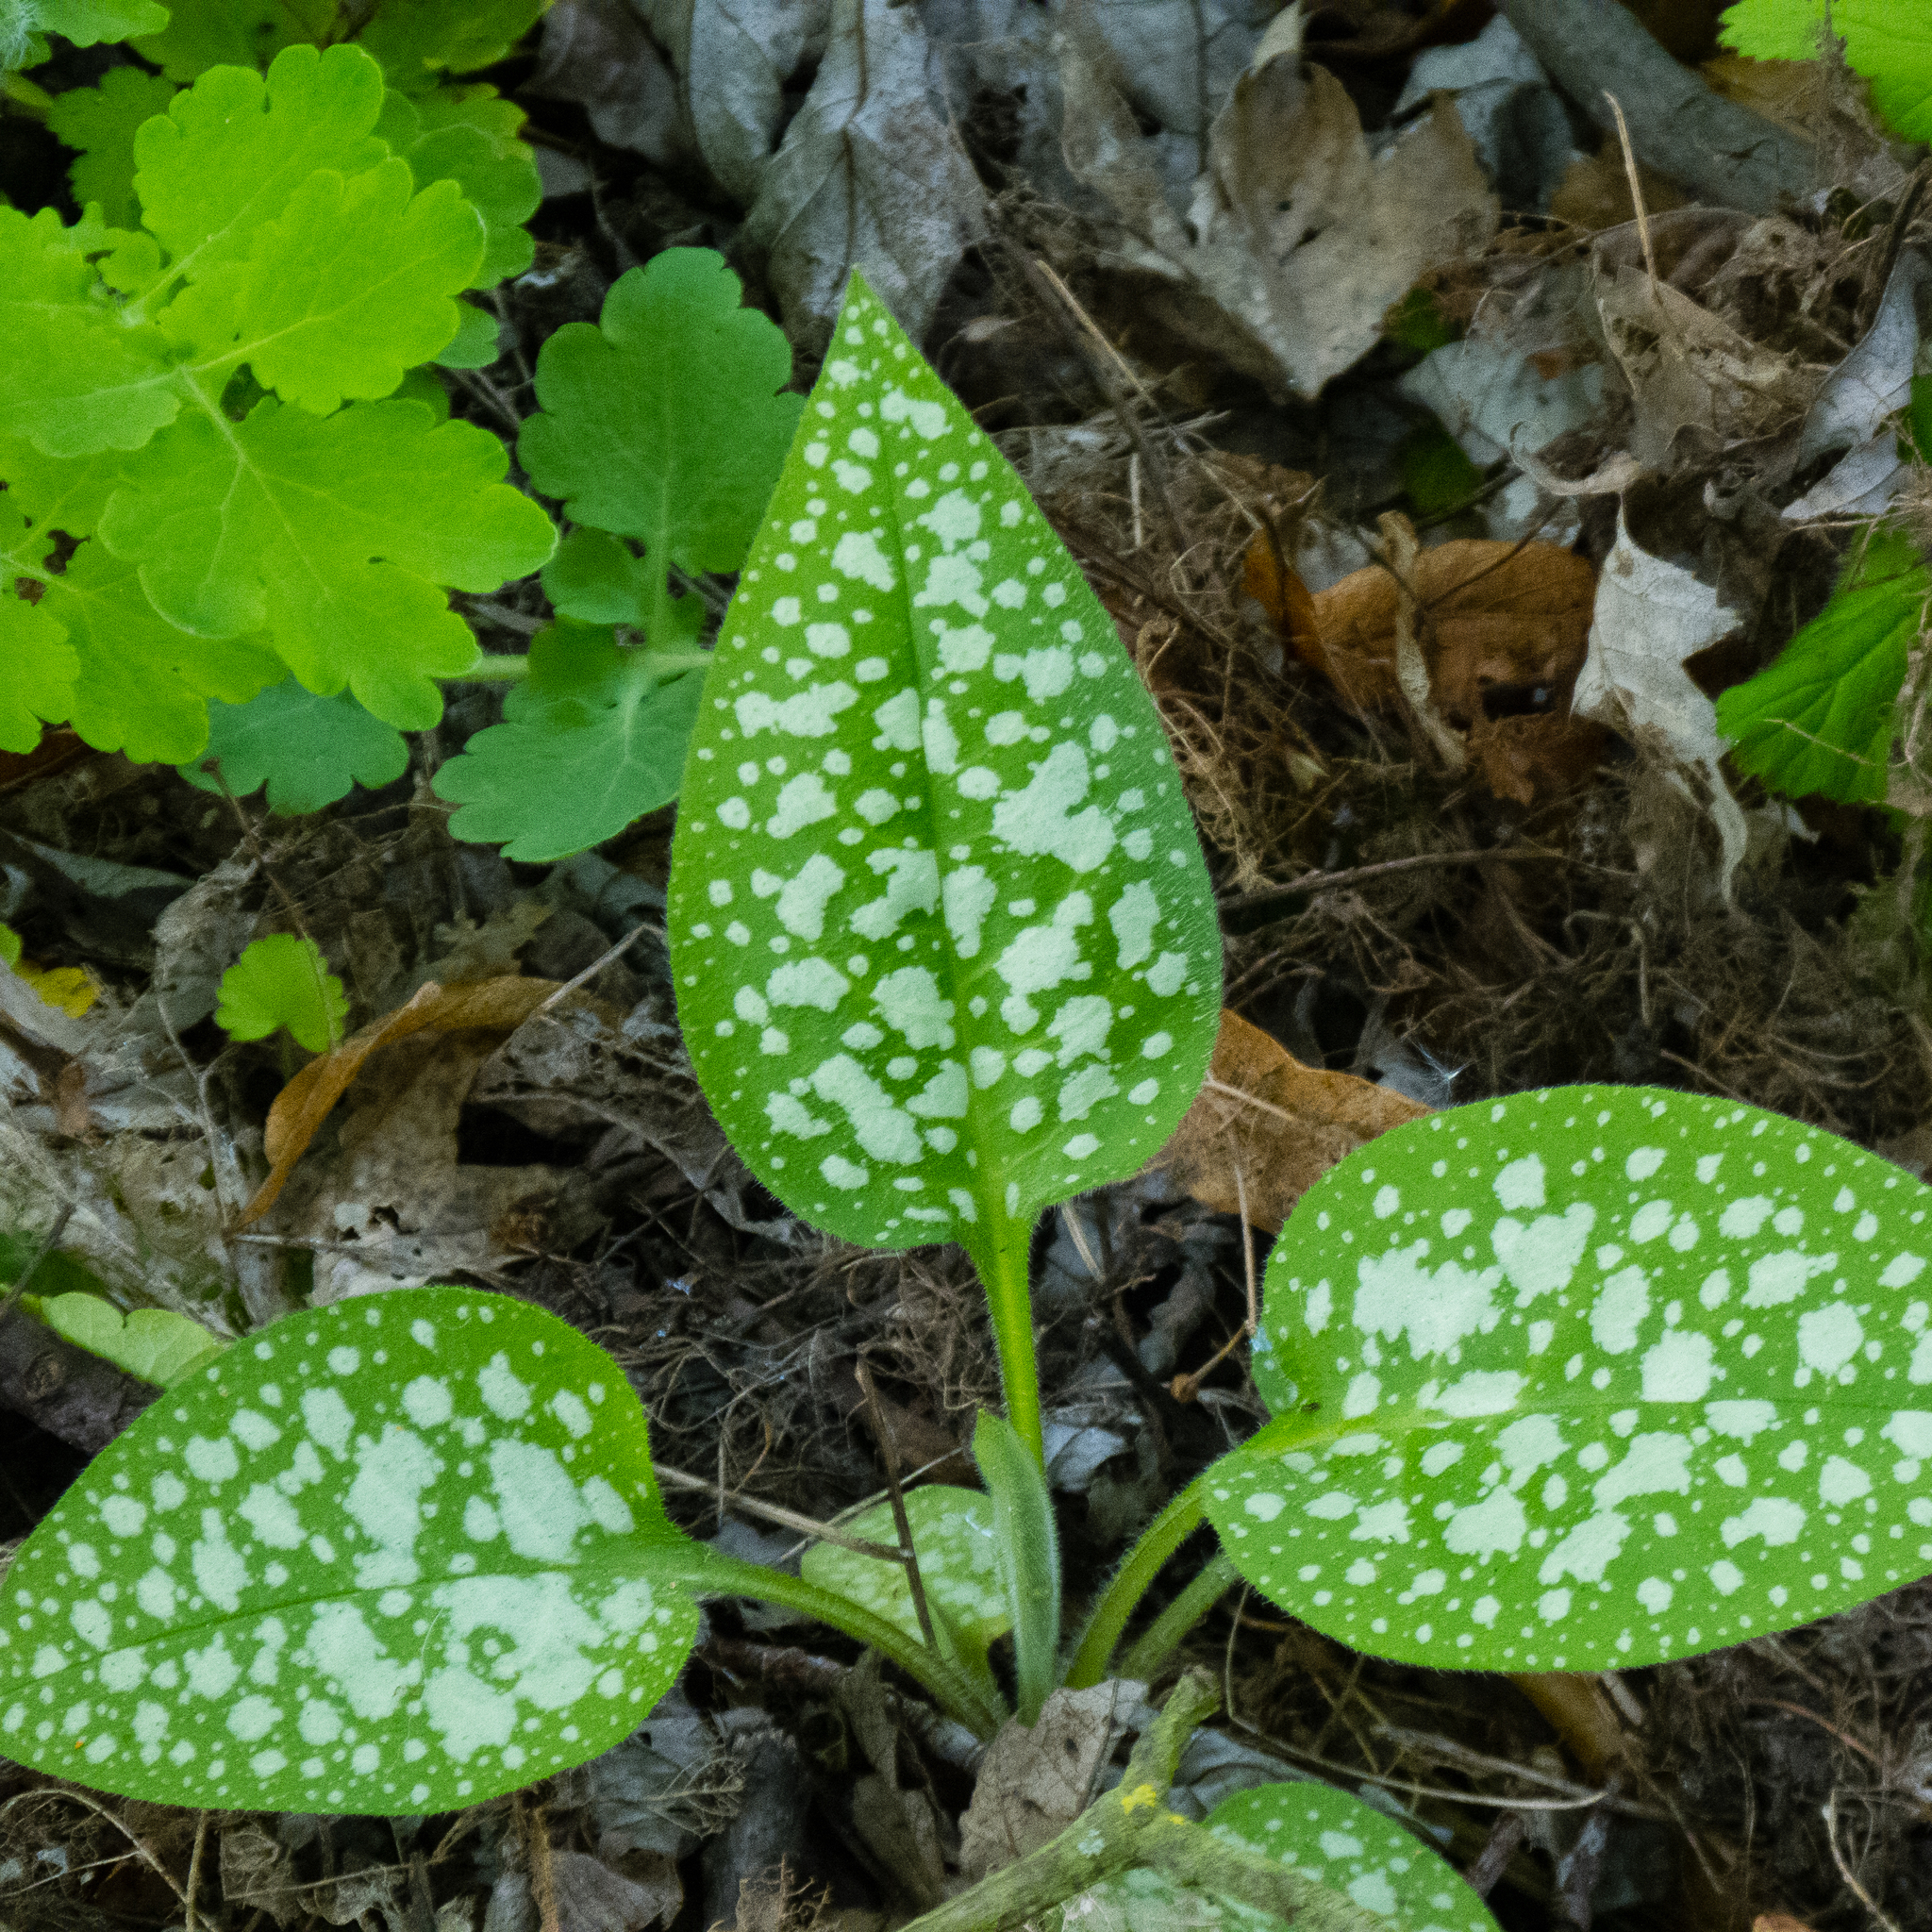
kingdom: Plantae
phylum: Tracheophyta
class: Magnoliopsida
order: Boraginales
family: Boraginaceae
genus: Pulmonaria
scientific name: Pulmonaria officinalis
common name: Lungwort
